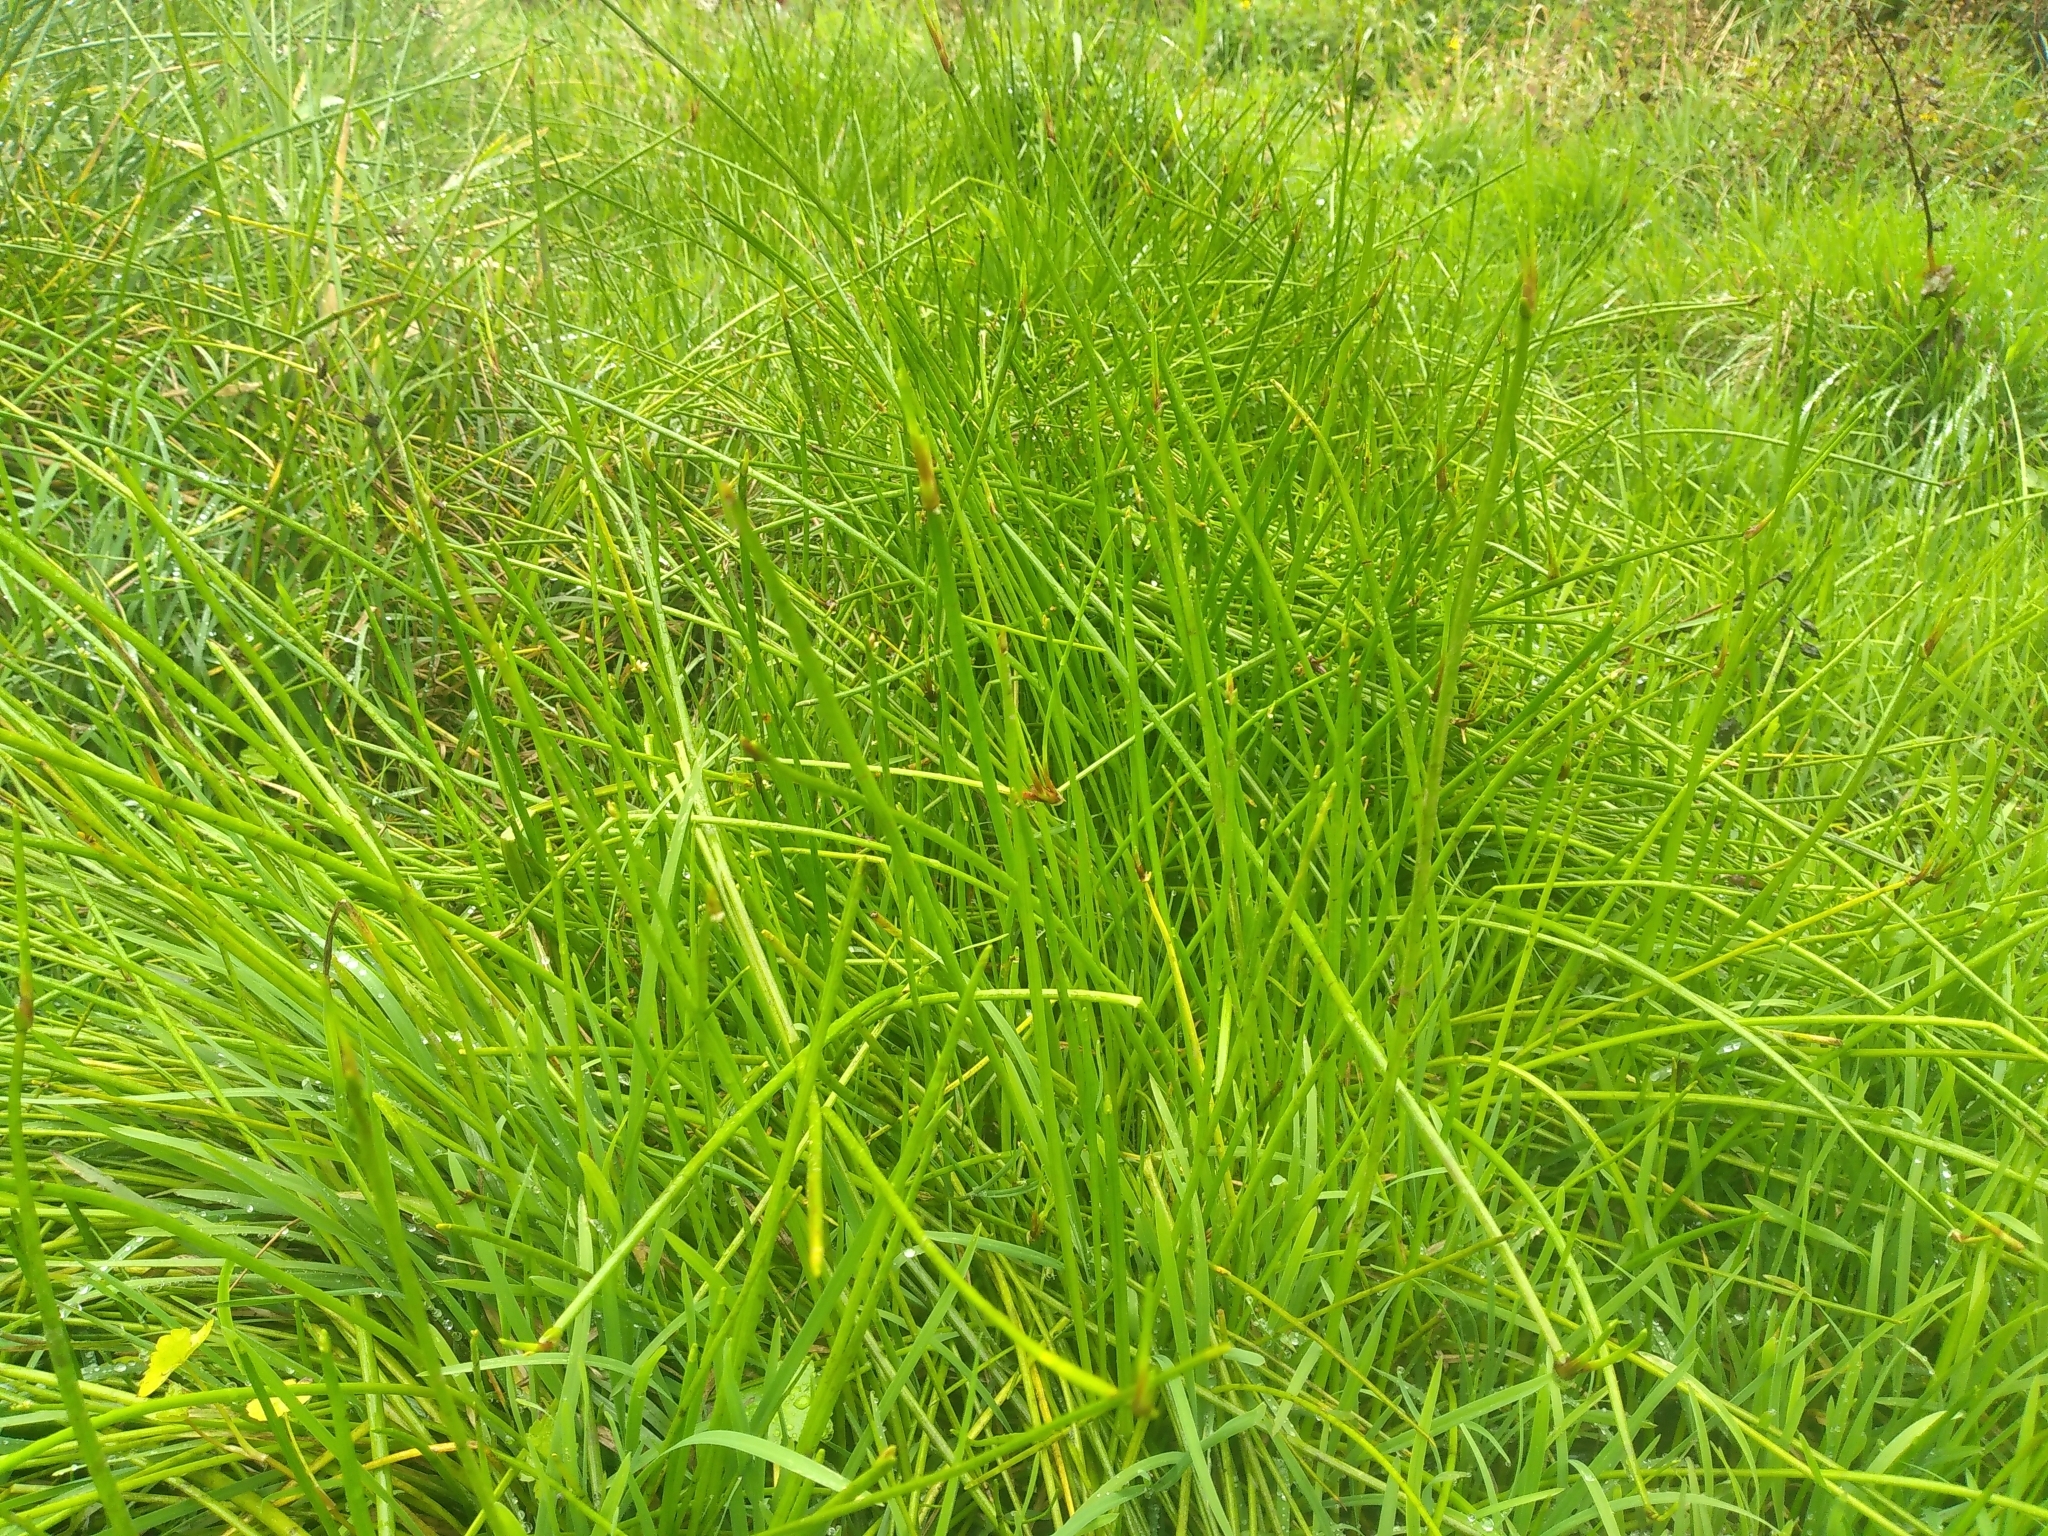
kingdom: Plantae
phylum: Tracheophyta
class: Liliopsida
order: Poales
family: Cyperaceae
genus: Isolepis
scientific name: Isolepis prolifera
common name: Proliferating bulrush
